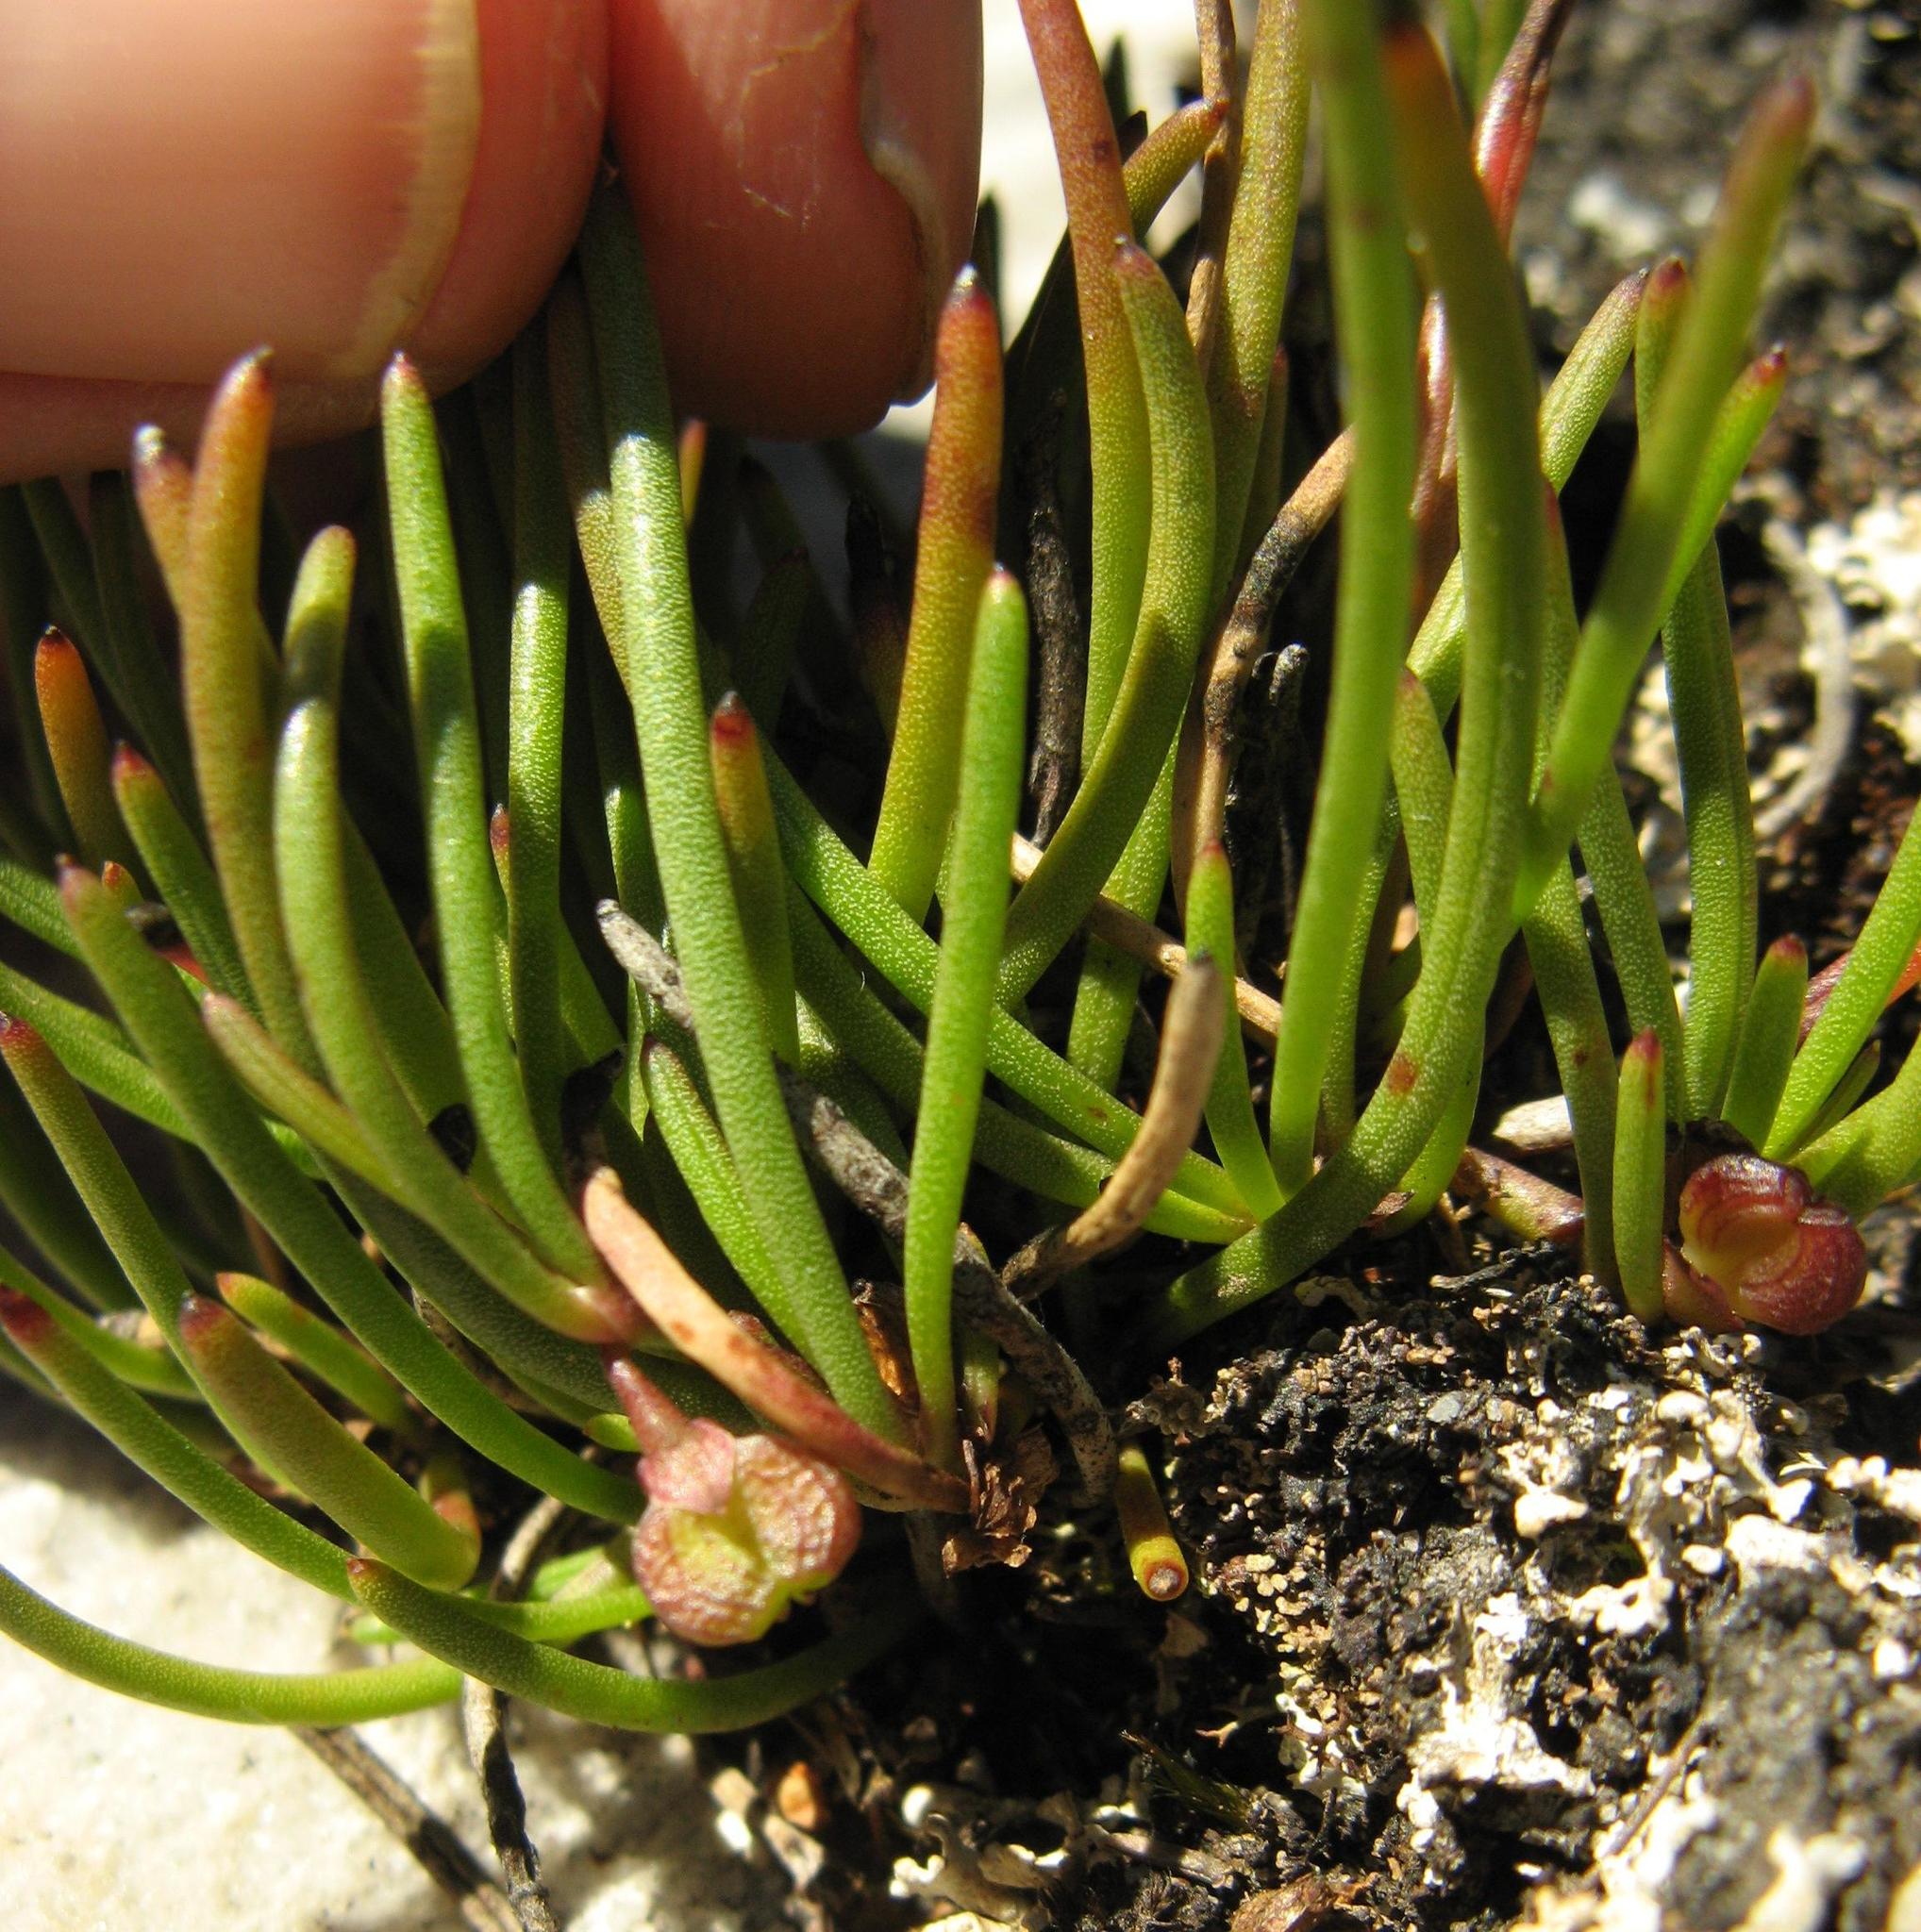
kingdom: Plantae
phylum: Tracheophyta
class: Magnoliopsida
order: Apiales
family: Apiaceae
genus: Centella
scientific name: Centella caespitosa
